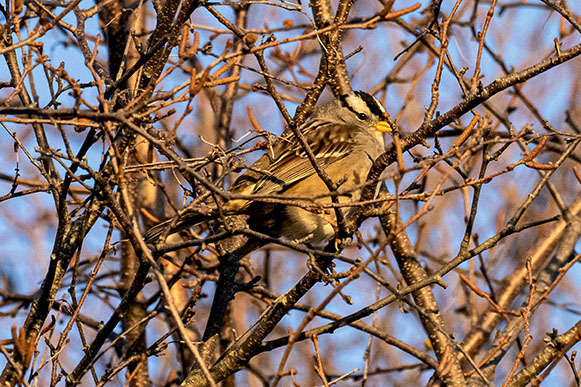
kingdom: Animalia
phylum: Chordata
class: Aves
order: Passeriformes
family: Passerellidae
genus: Zonotrichia
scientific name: Zonotrichia leucophrys
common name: White-crowned sparrow
